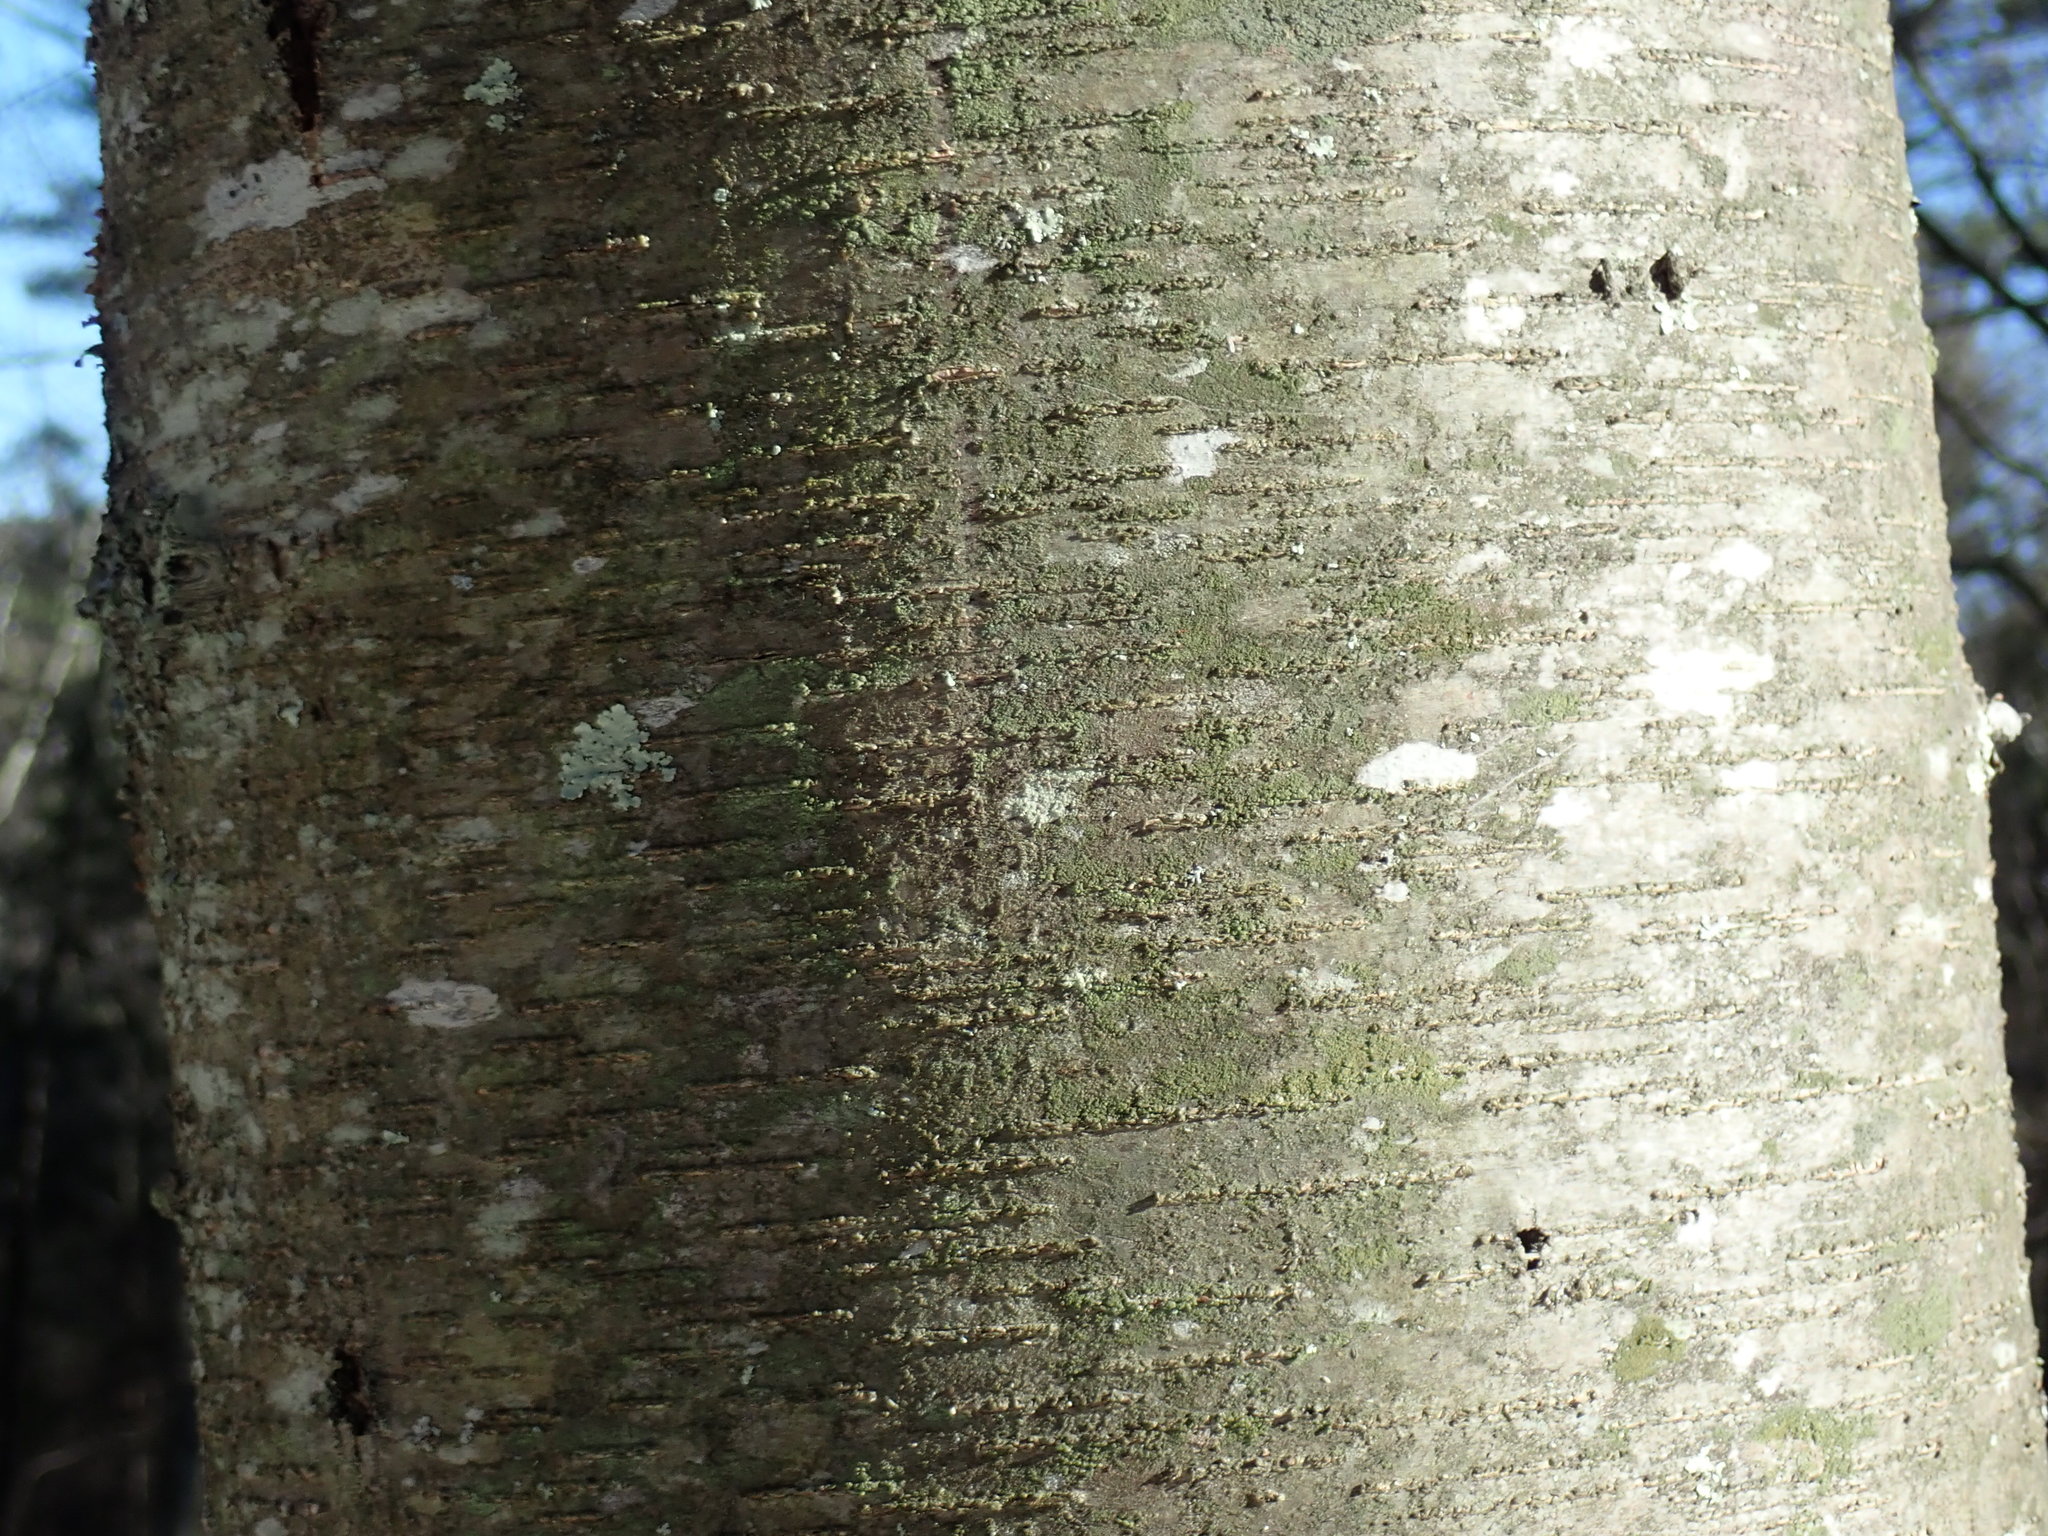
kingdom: Plantae
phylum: Tracheophyta
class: Magnoliopsida
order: Fagales
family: Betulaceae
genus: Betula
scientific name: Betula lenta
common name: Black birch
